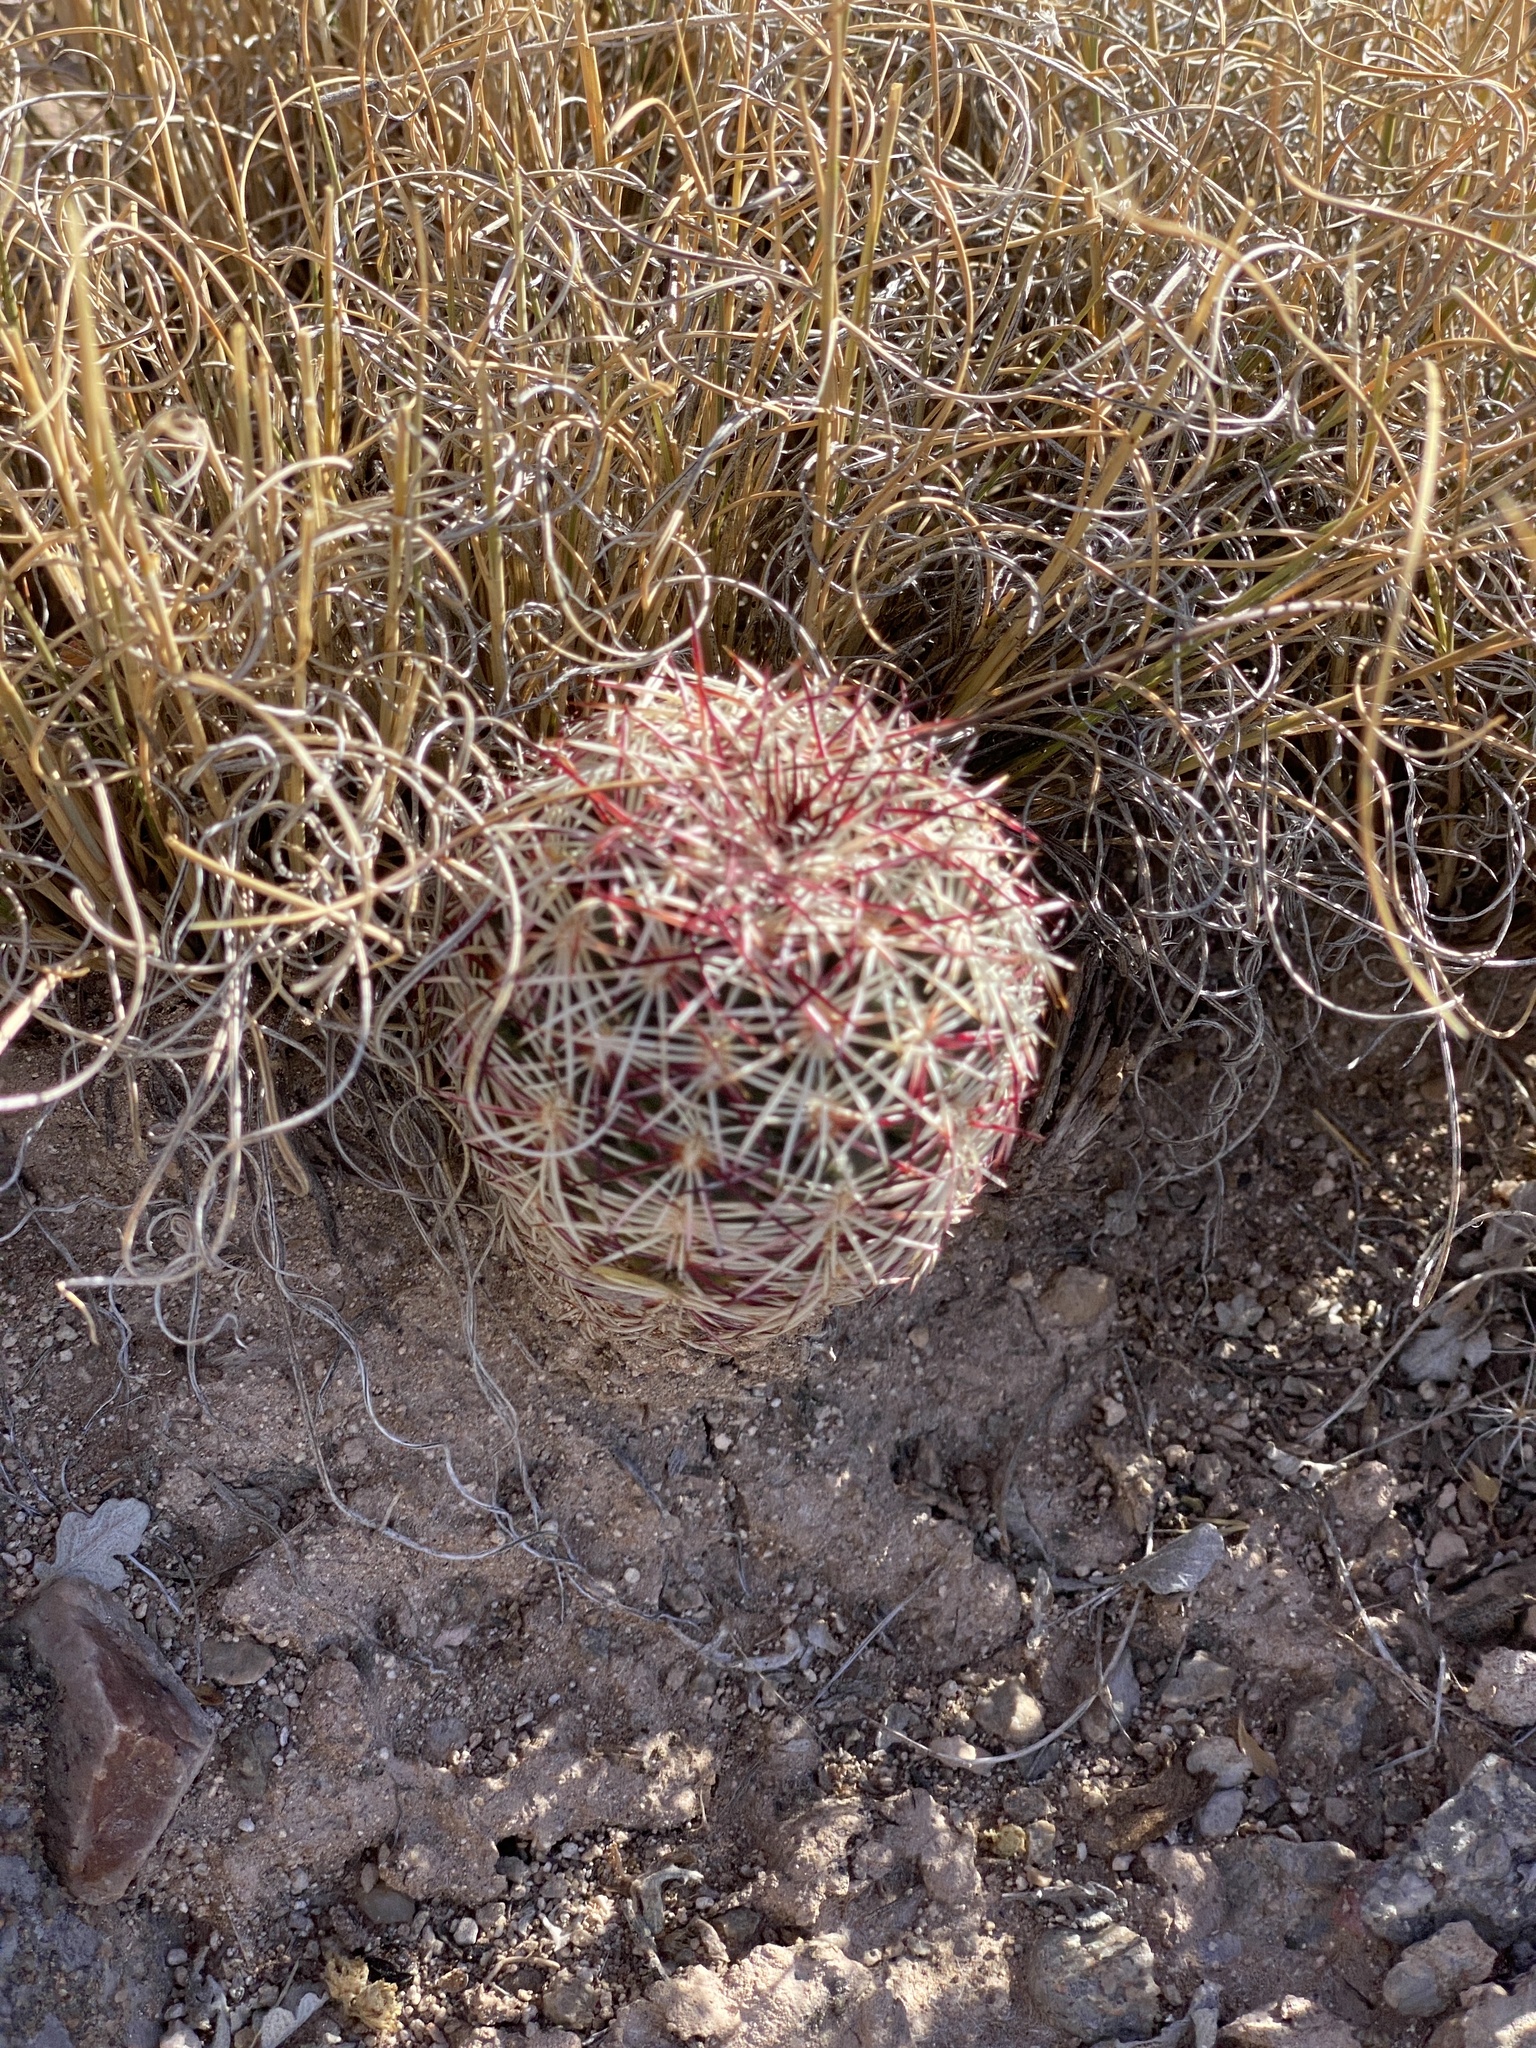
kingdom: Plantae
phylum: Tracheophyta
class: Magnoliopsida
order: Caryophyllales
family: Cactaceae
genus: Echinocereus
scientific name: Echinocereus viridiflorus
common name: Nylon hedgehog cactus
